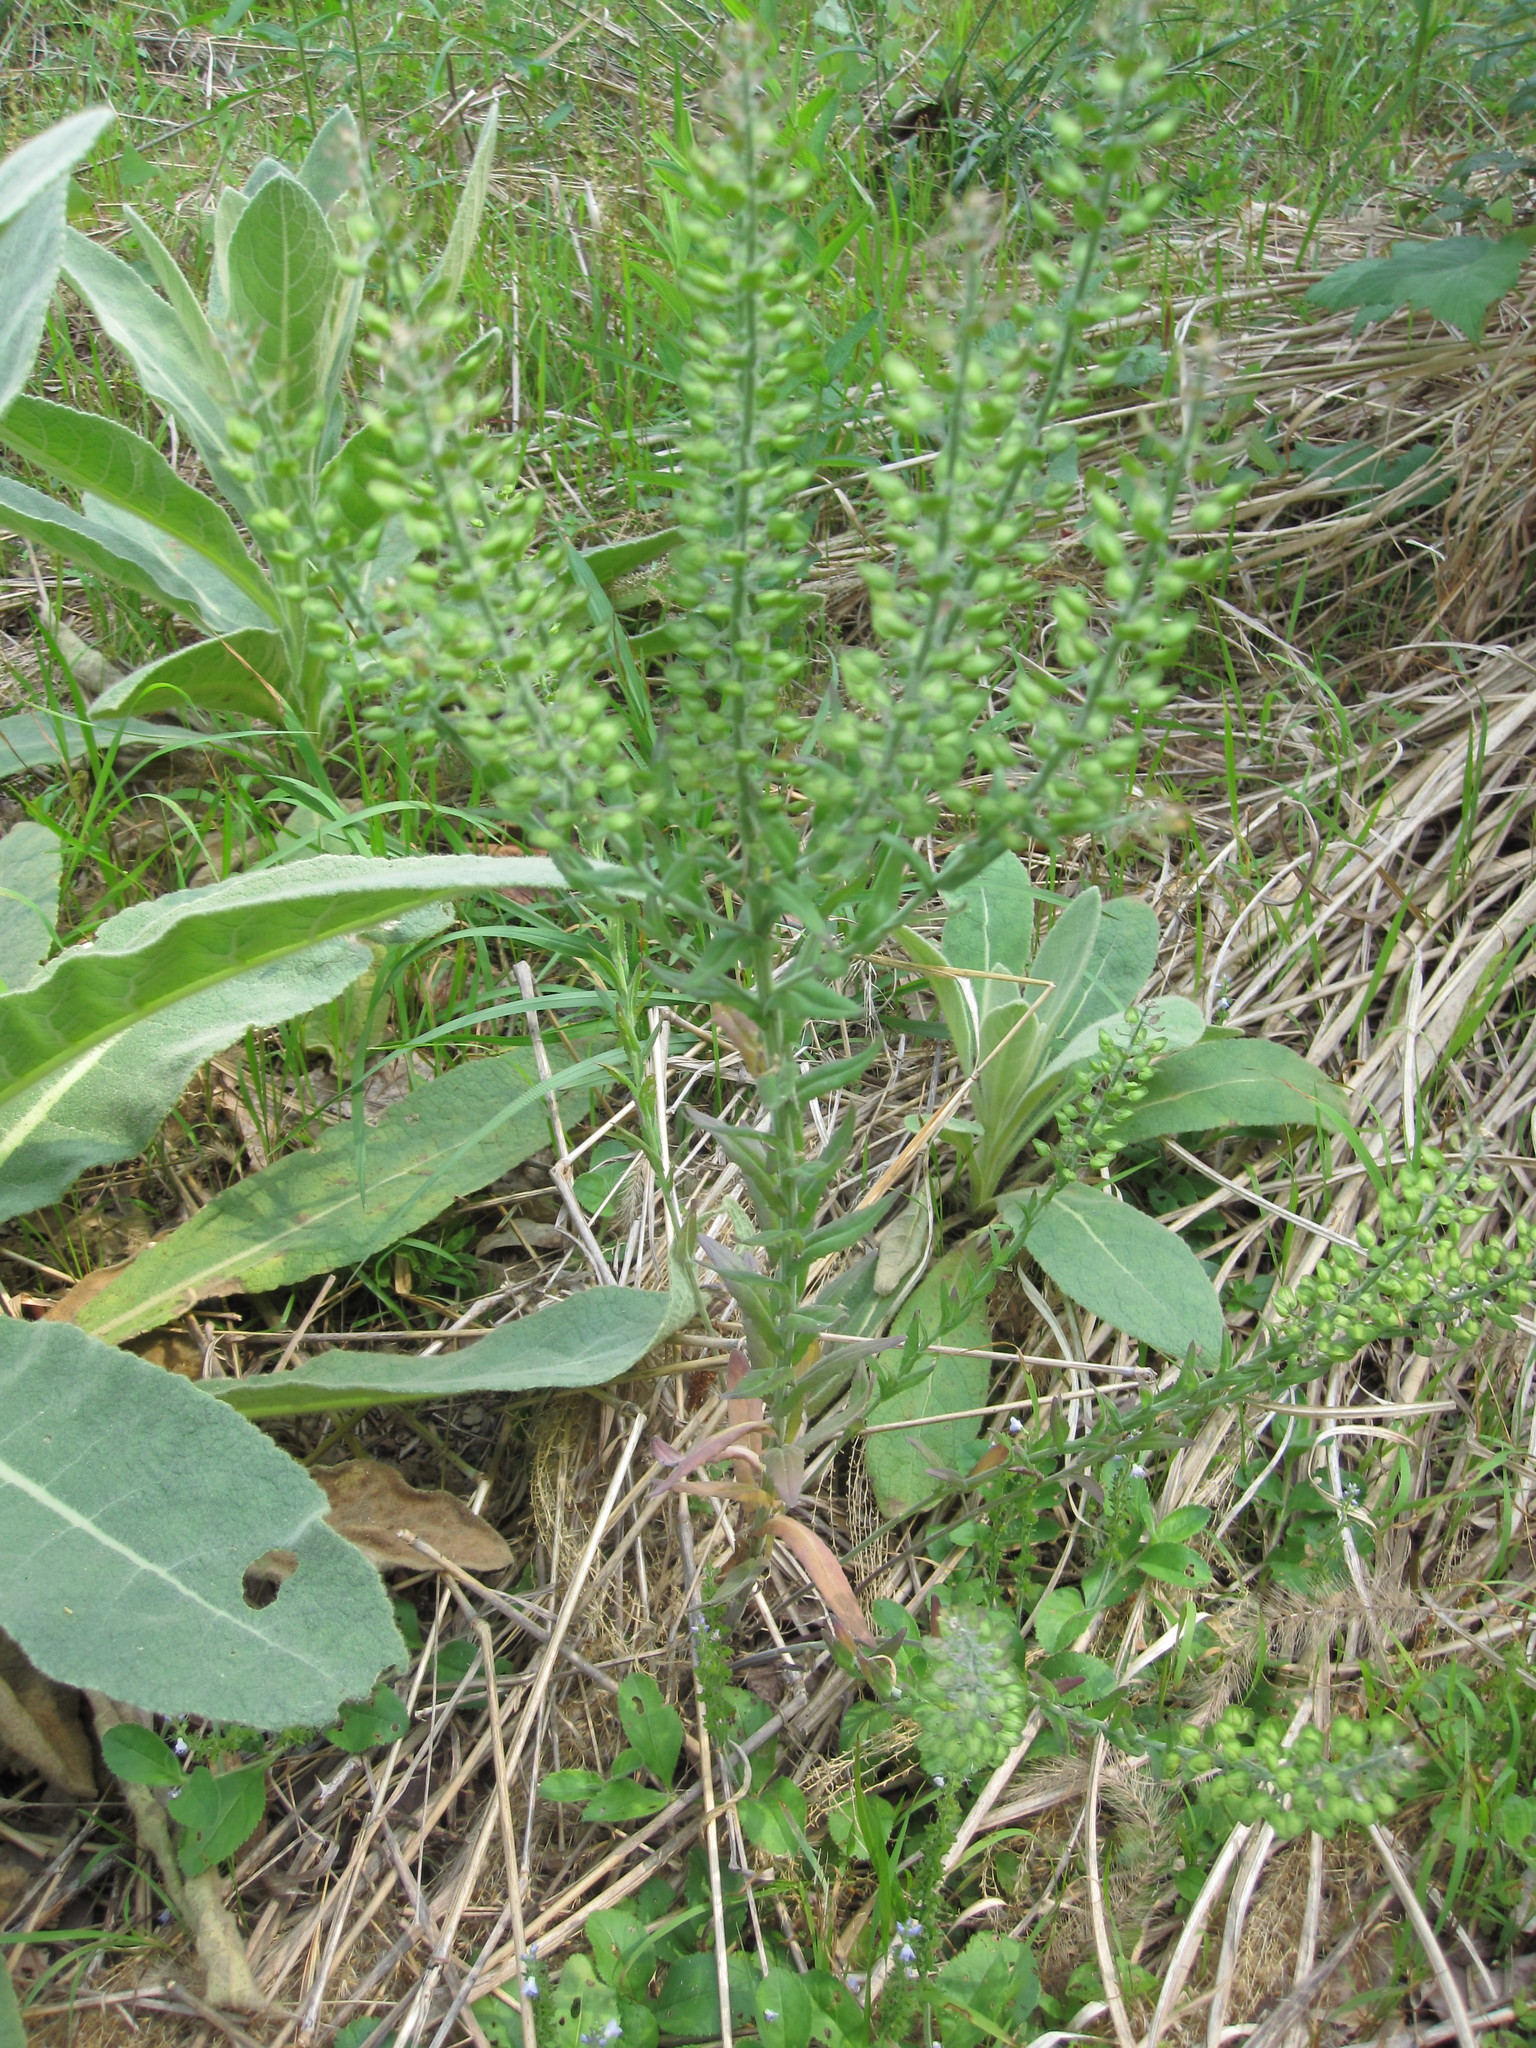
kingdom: Plantae
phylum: Tracheophyta
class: Magnoliopsida
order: Brassicales
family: Brassicaceae
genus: Lepidium
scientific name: Lepidium virginicum
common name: Least pepperwort
